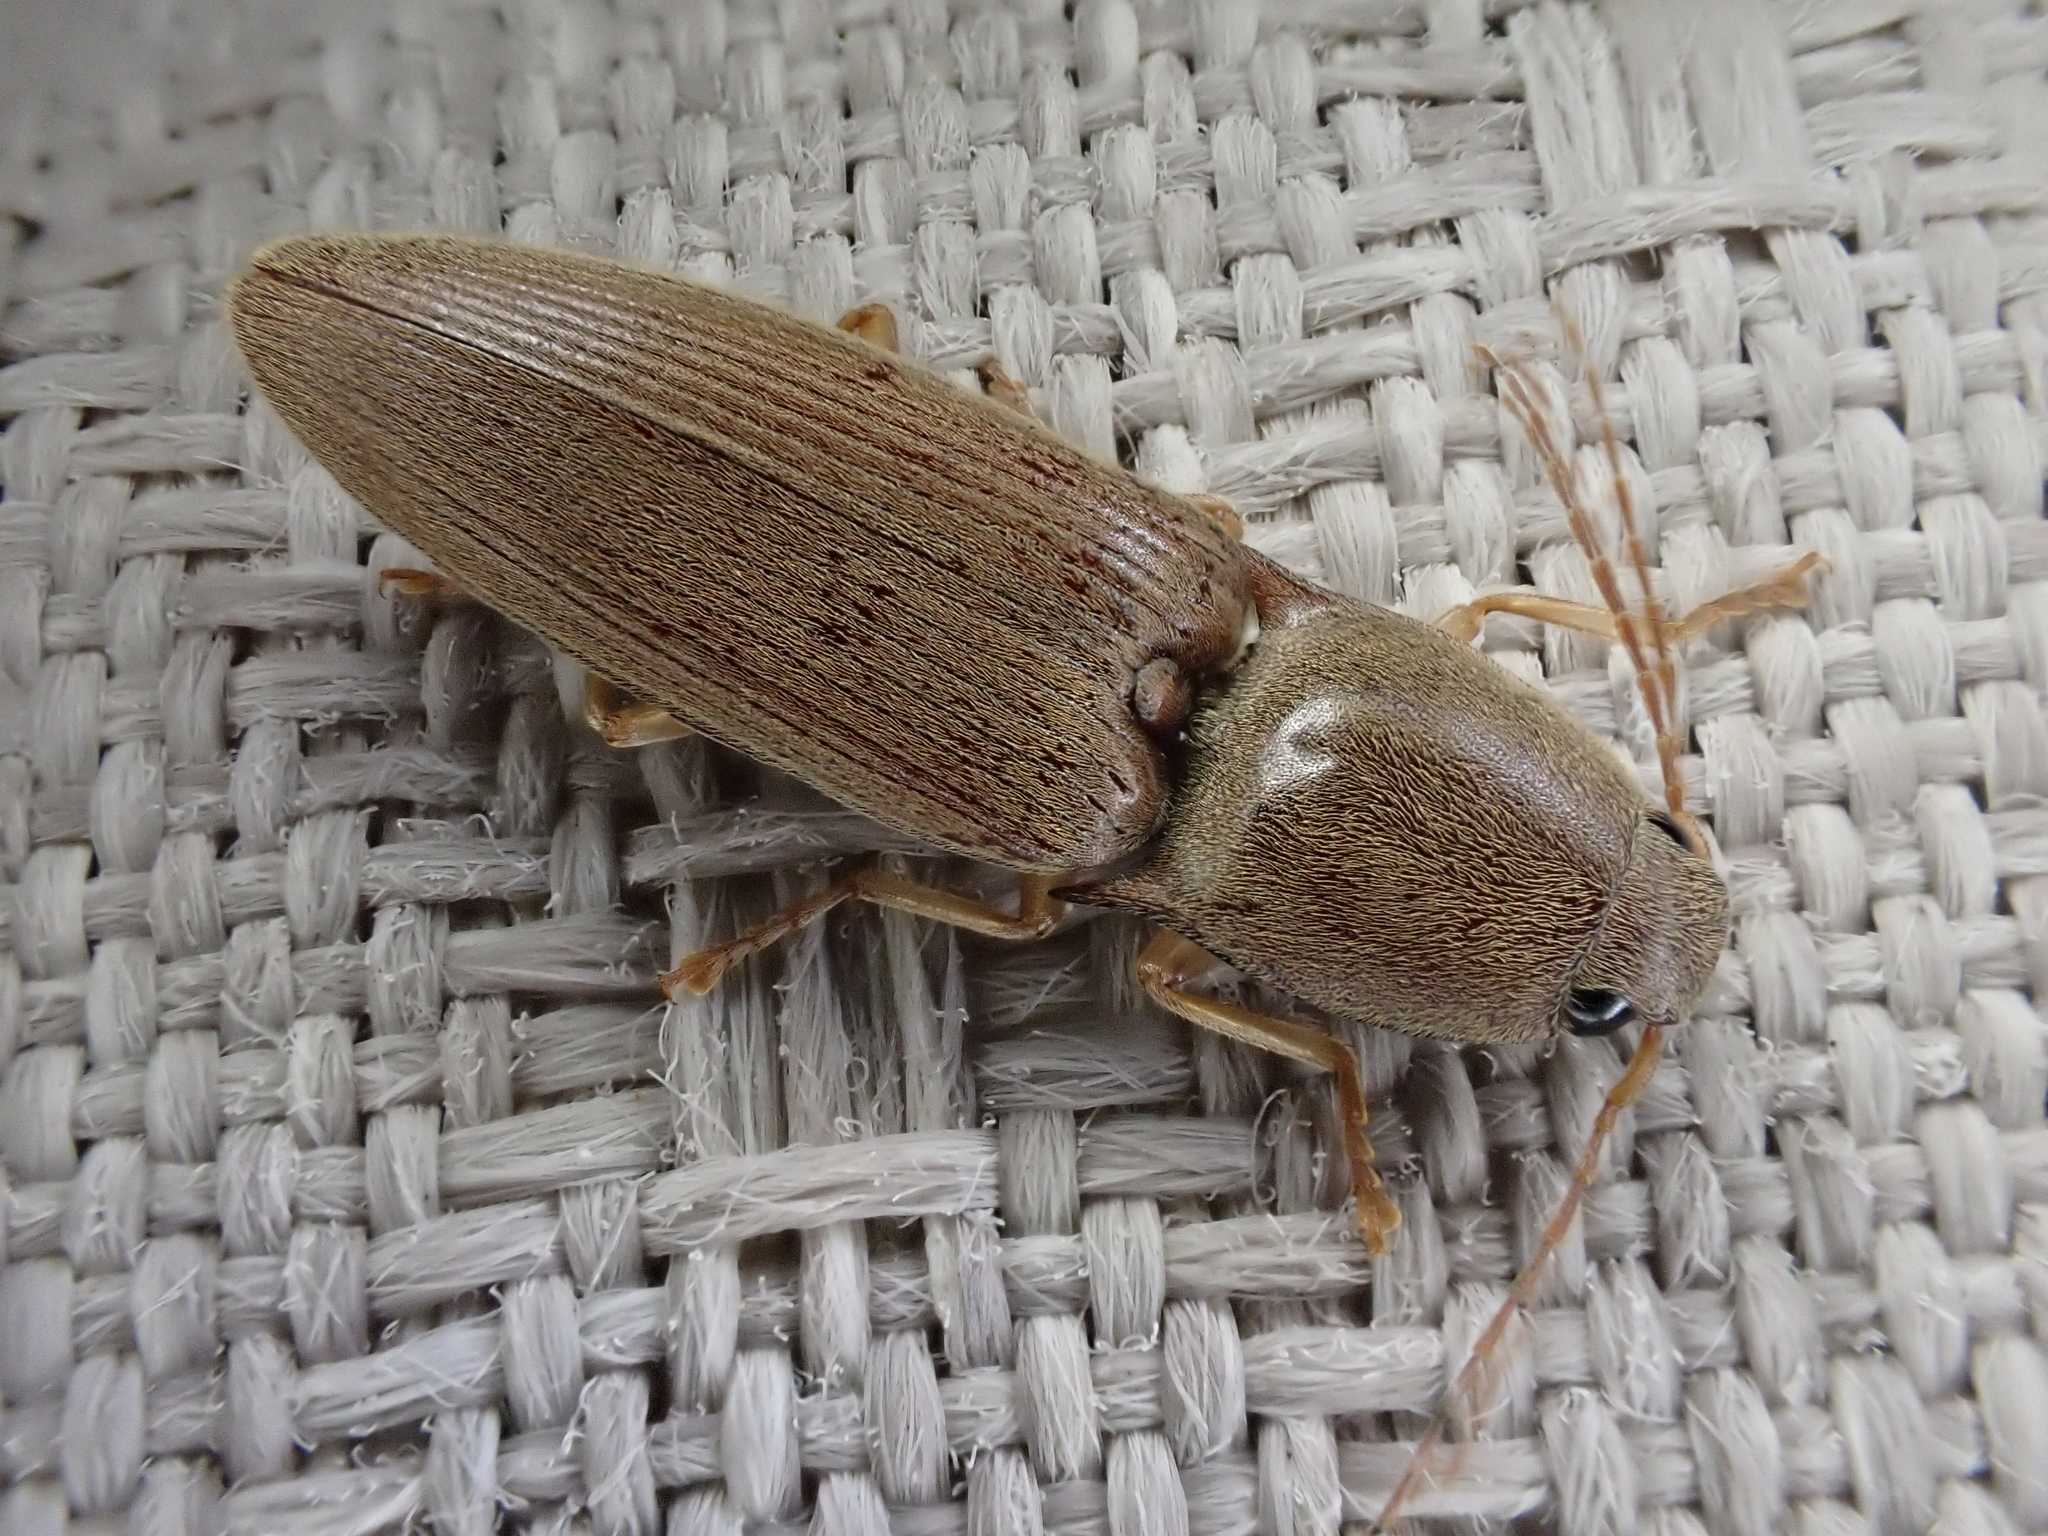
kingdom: Animalia
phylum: Arthropoda
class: Insecta
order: Coleoptera
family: Elateridae
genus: Monocrepidius
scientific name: Monocrepidius lividus
